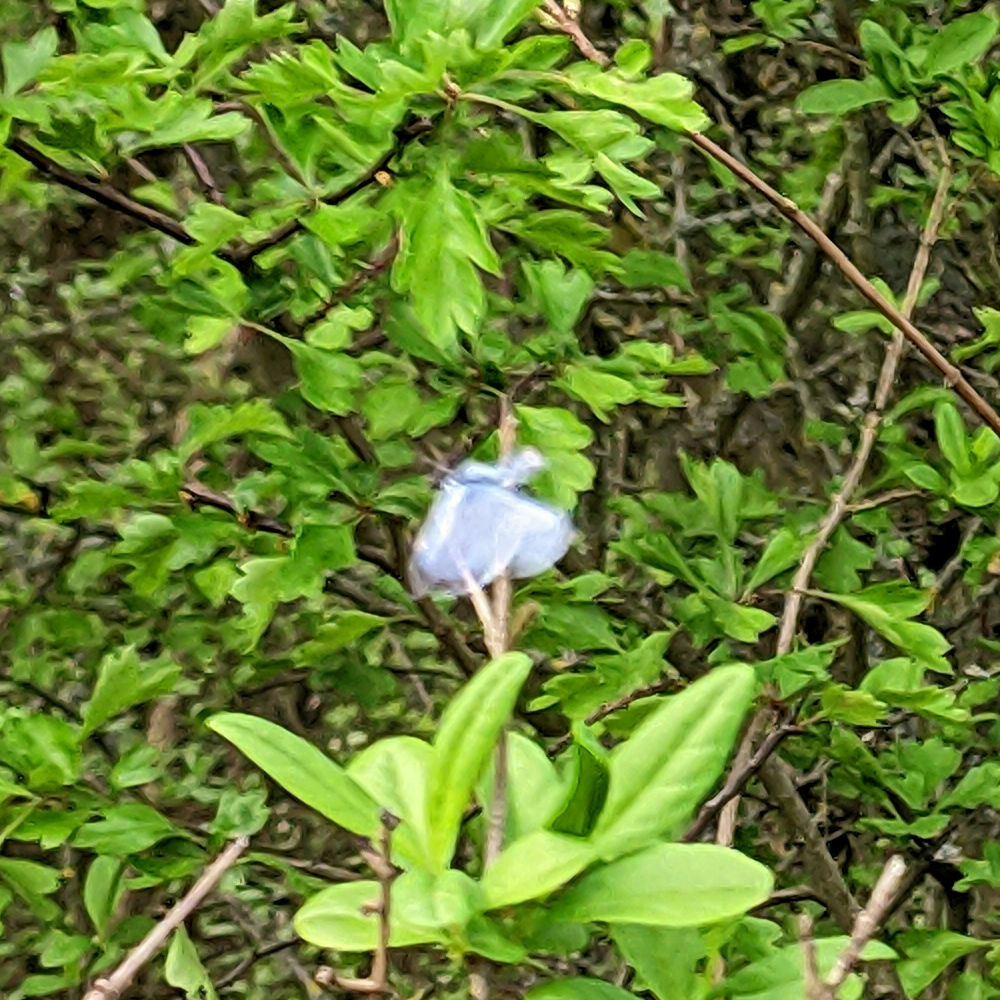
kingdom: Animalia
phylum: Arthropoda
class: Insecta
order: Lepidoptera
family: Lycaenidae
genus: Celastrina
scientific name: Celastrina argiolus
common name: Holly blue
